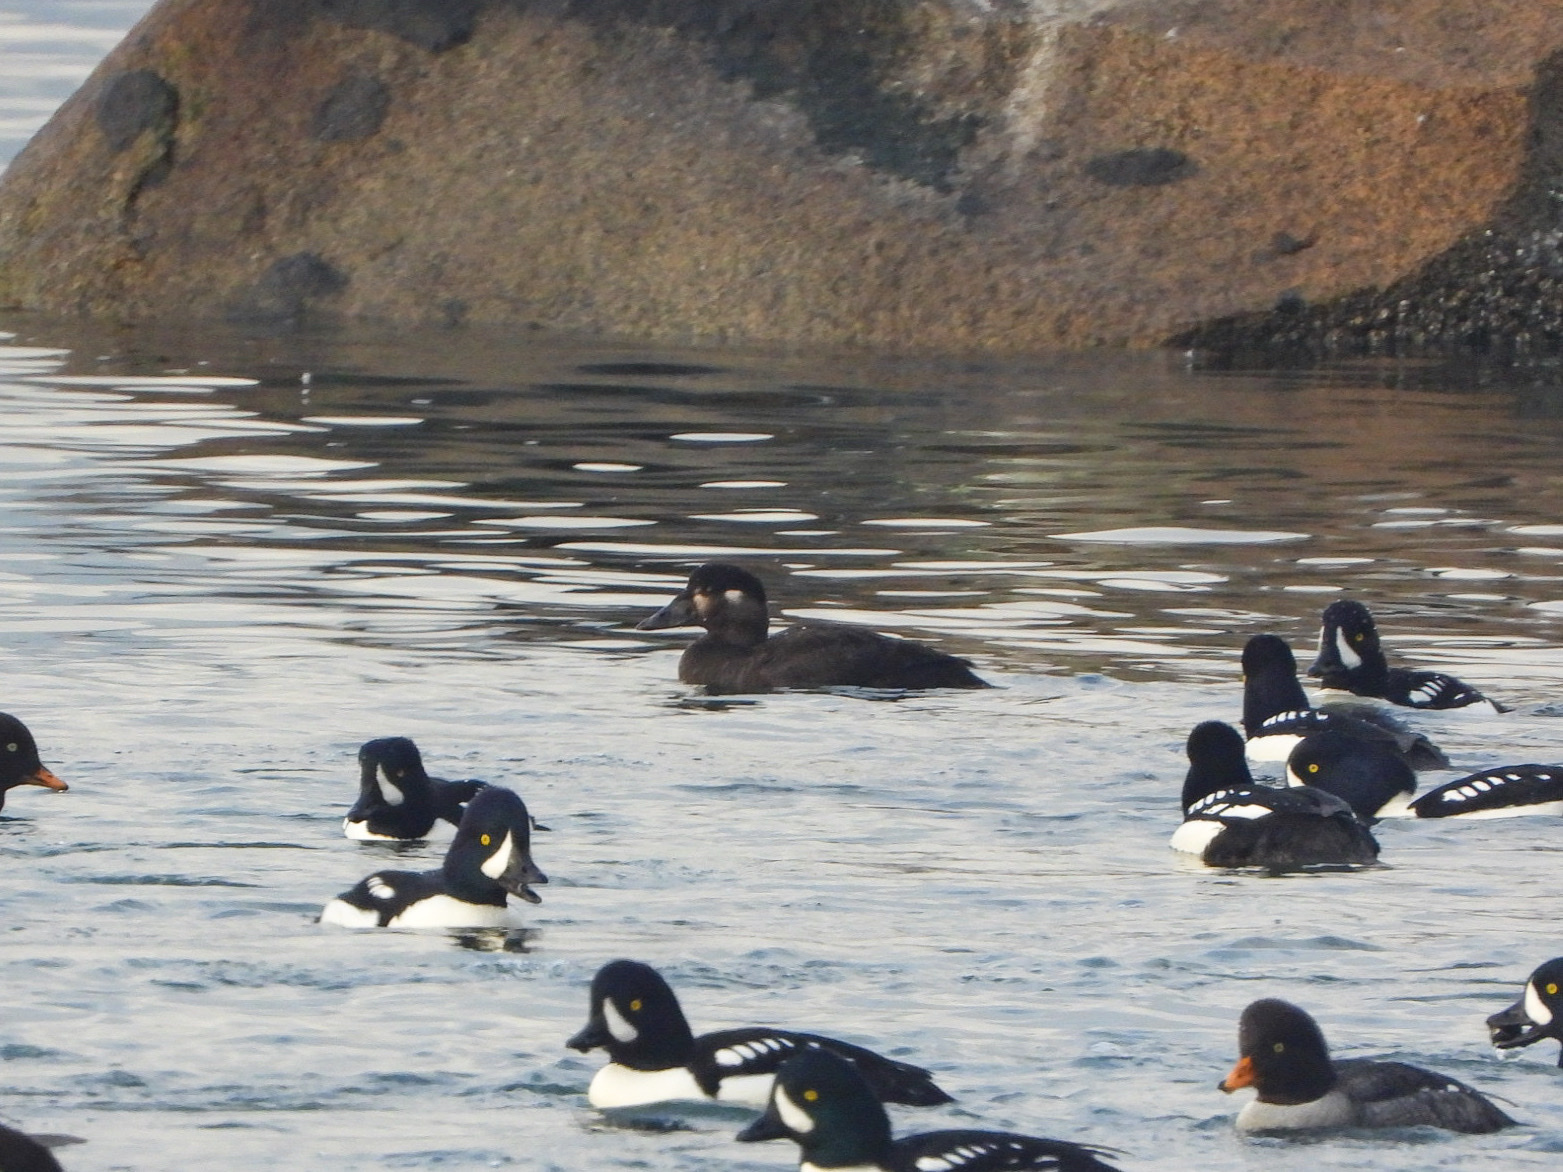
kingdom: Animalia
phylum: Chordata
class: Aves
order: Anseriformes
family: Anatidae
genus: Melanitta
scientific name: Melanitta perspicillata
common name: Surf scoter
